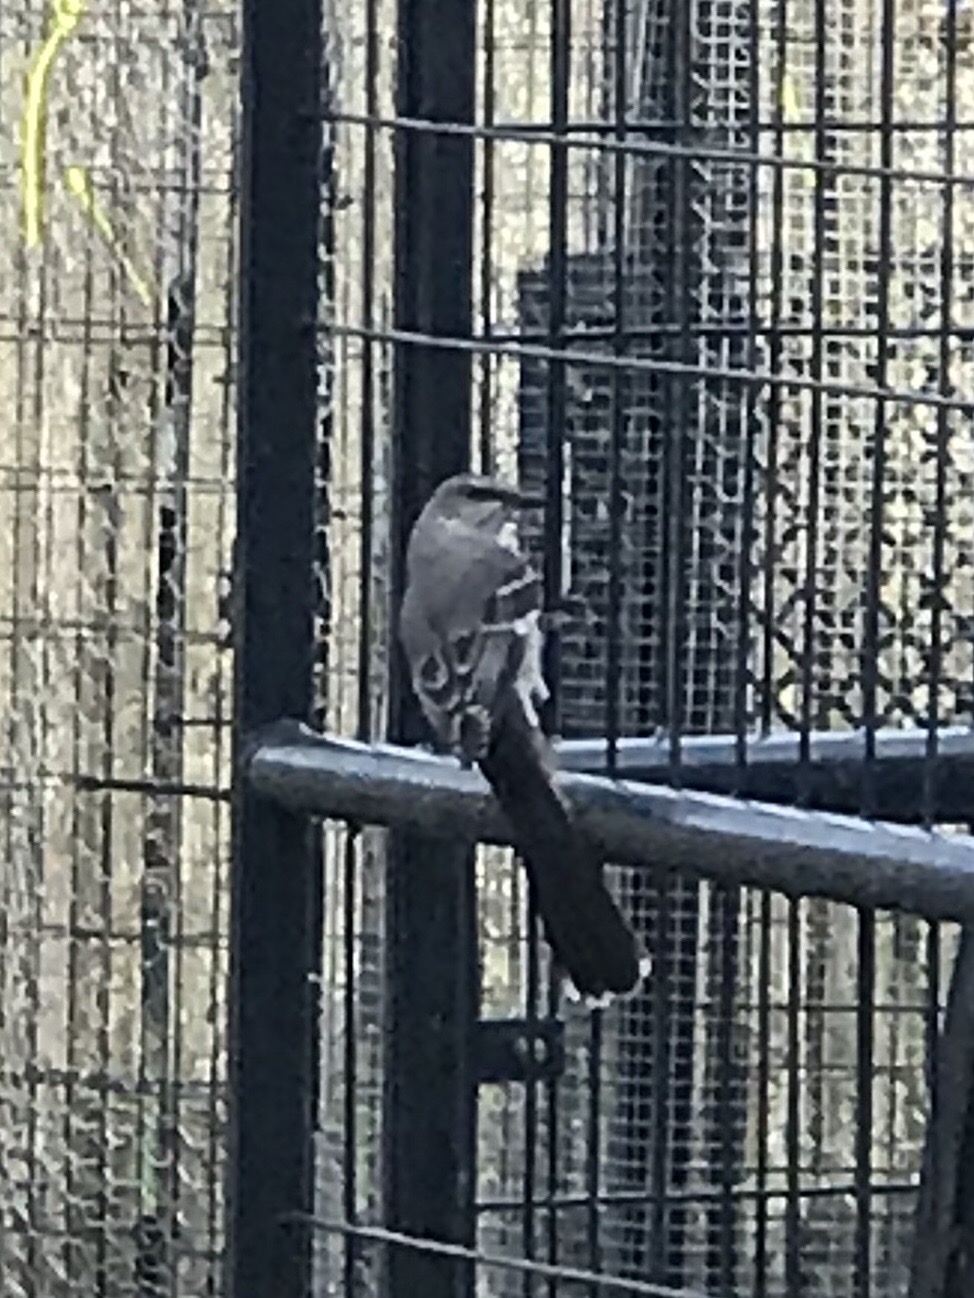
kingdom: Animalia
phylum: Chordata
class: Aves
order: Passeriformes
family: Mimidae
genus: Mimus
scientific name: Mimus polyglottos
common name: Northern mockingbird
